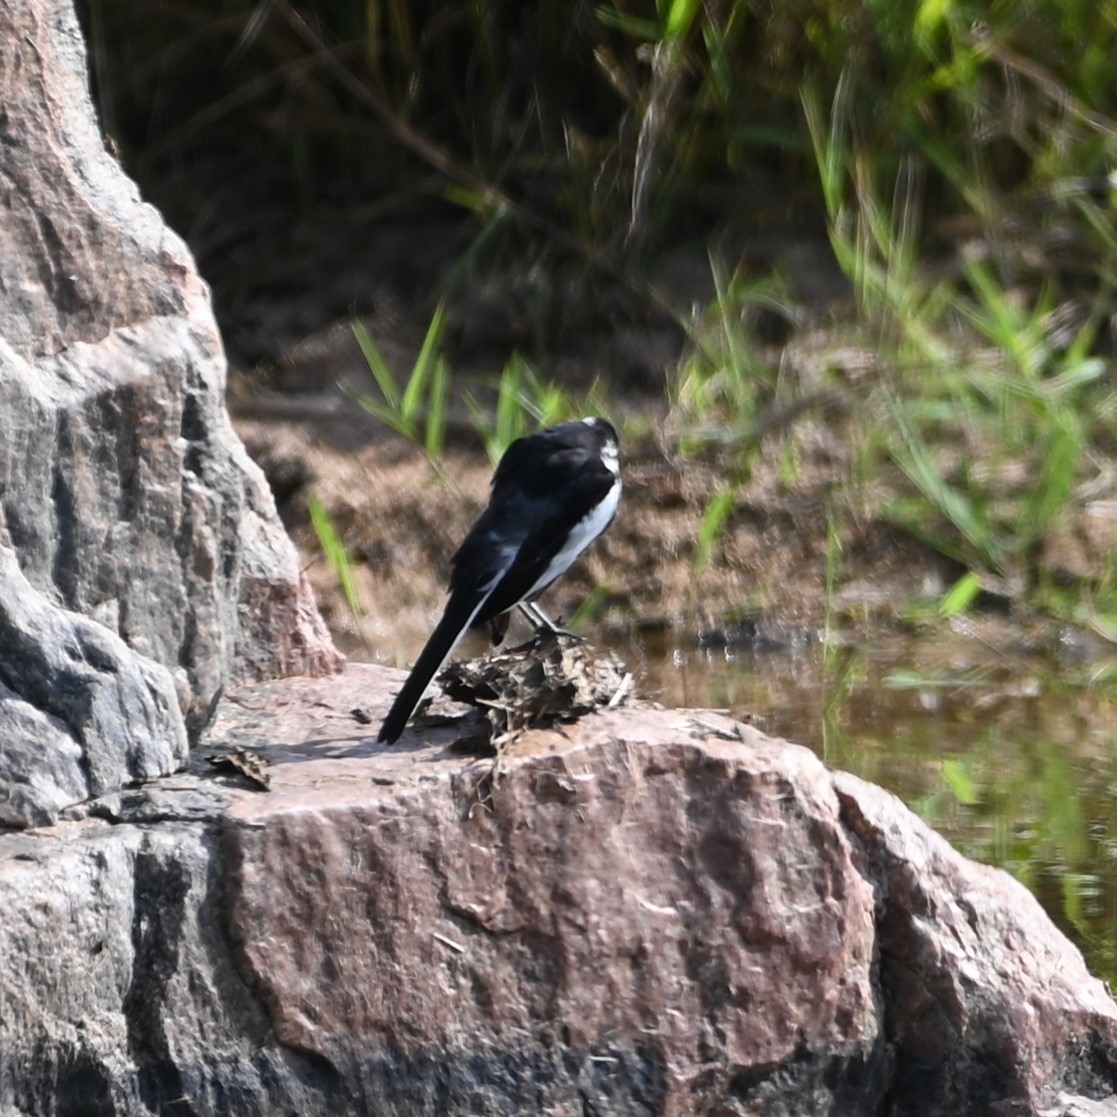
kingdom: Animalia
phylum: Chordata
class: Aves
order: Passeriformes
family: Motacillidae
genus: Motacilla
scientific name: Motacilla aguimp
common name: African pied wagtail
